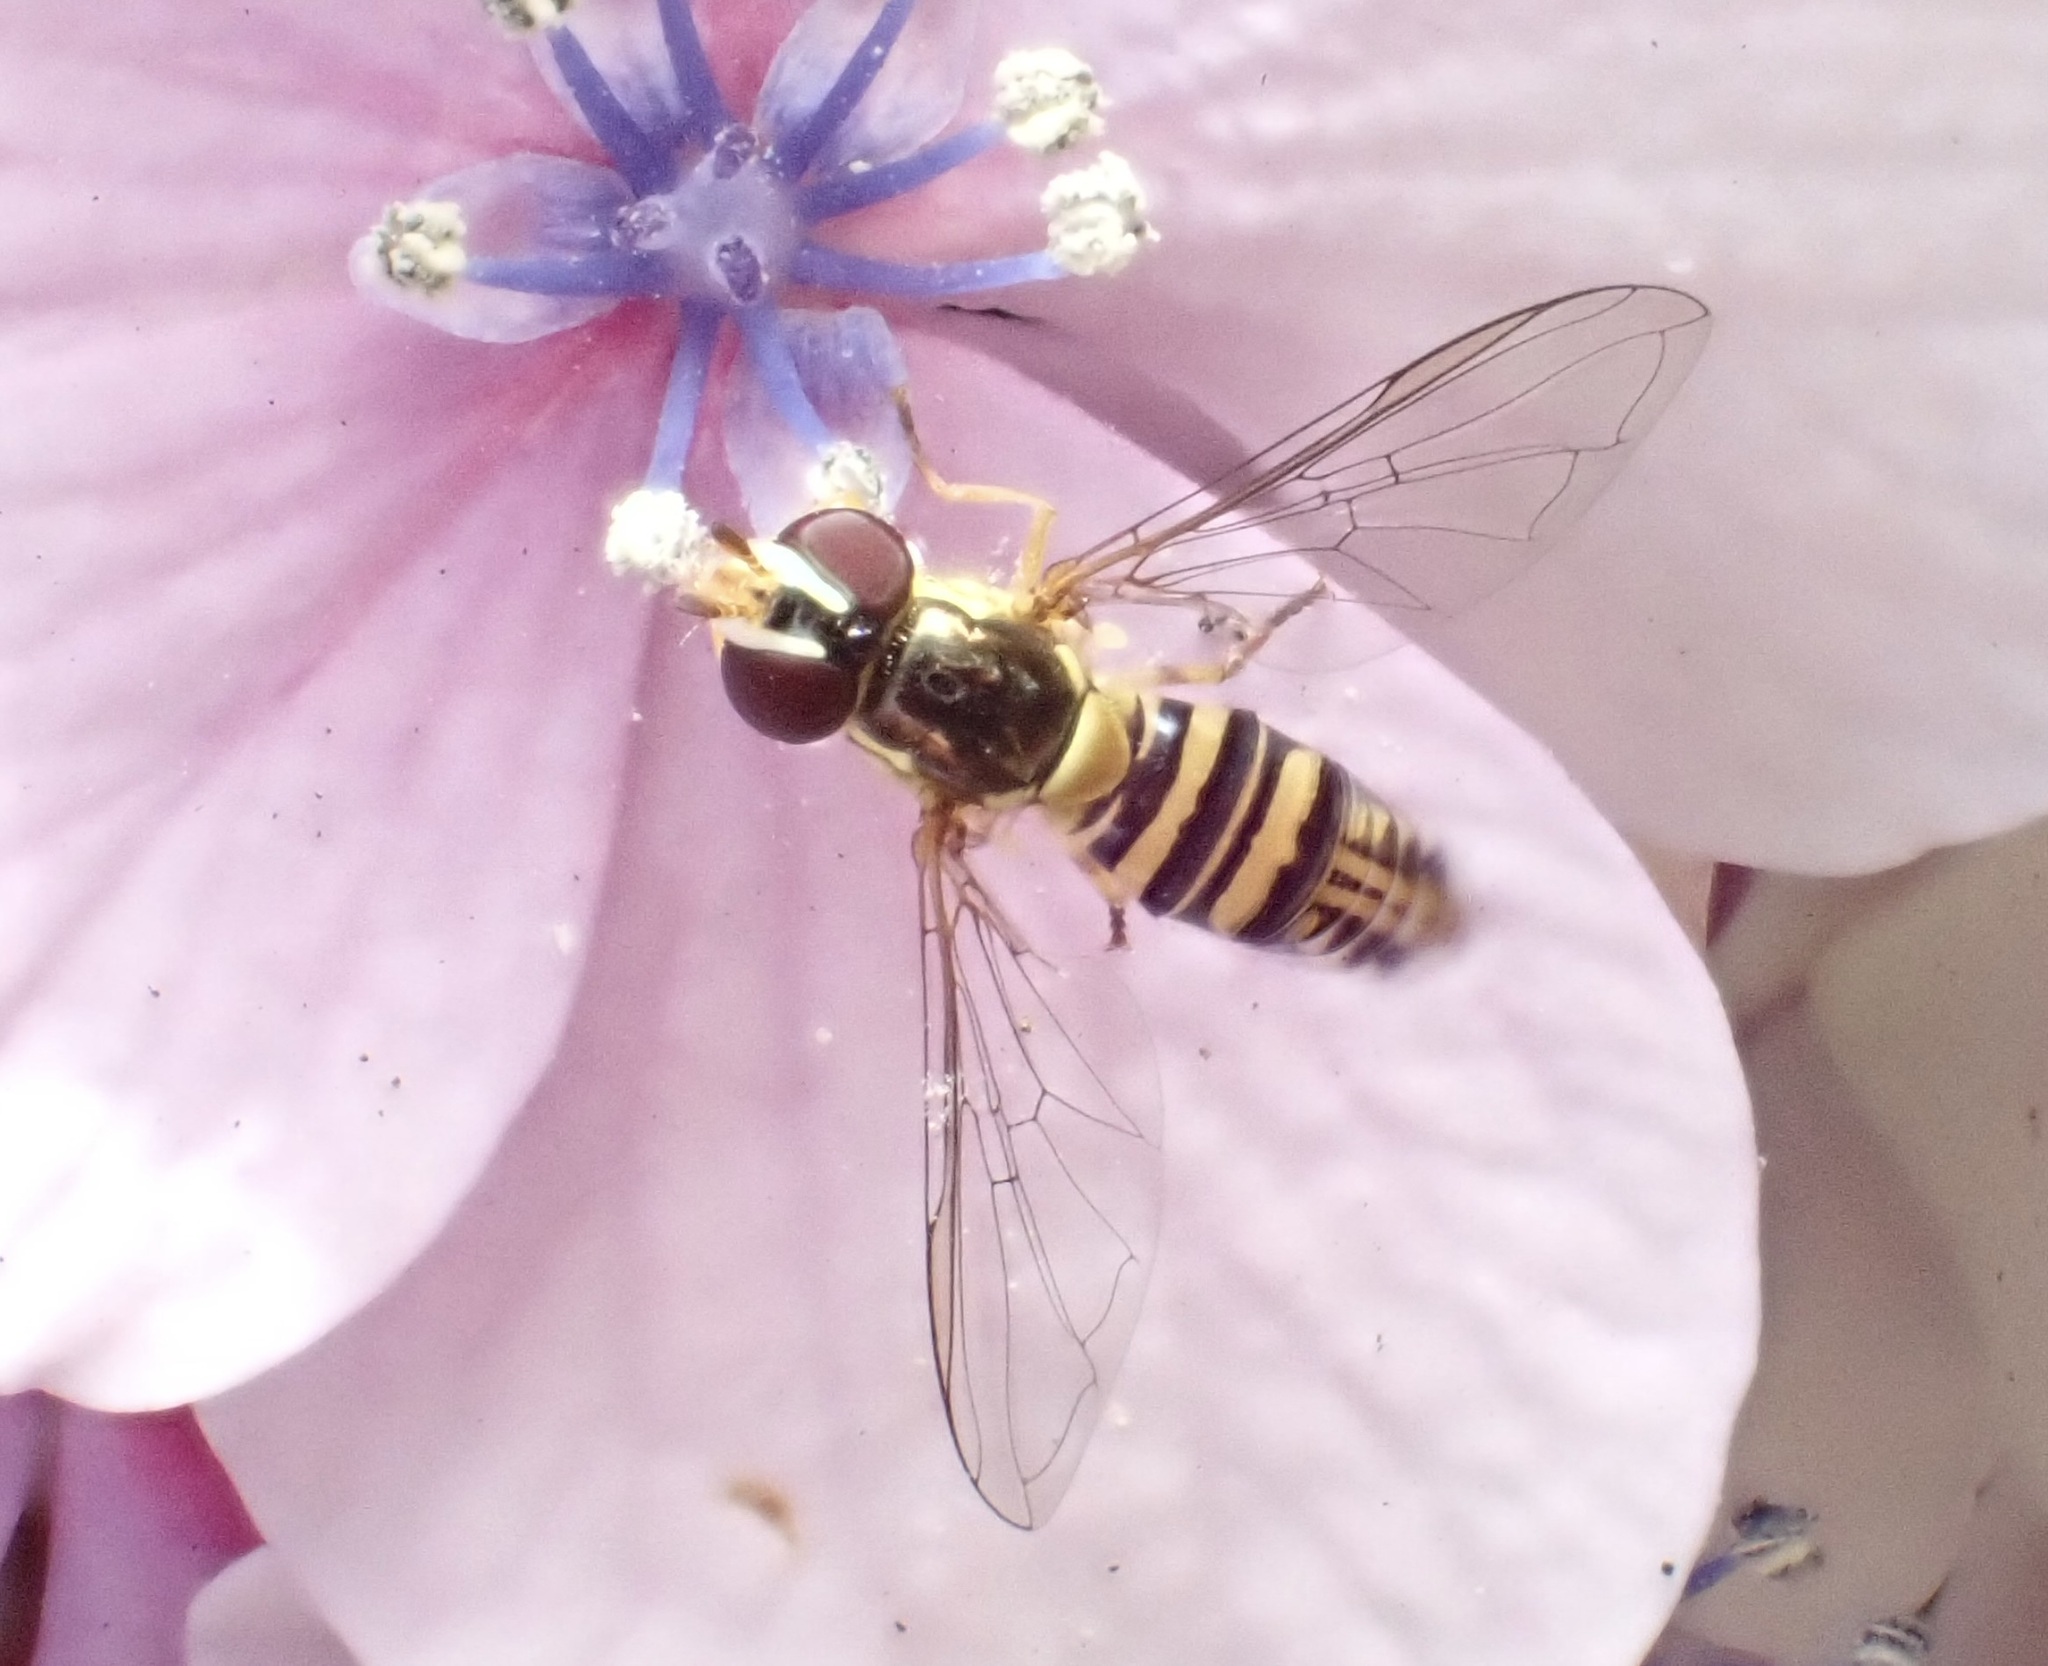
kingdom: Animalia
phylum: Arthropoda
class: Insecta
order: Diptera
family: Syrphidae
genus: Allograpta
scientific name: Allograpta obliqua
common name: Common oblique syrphid
